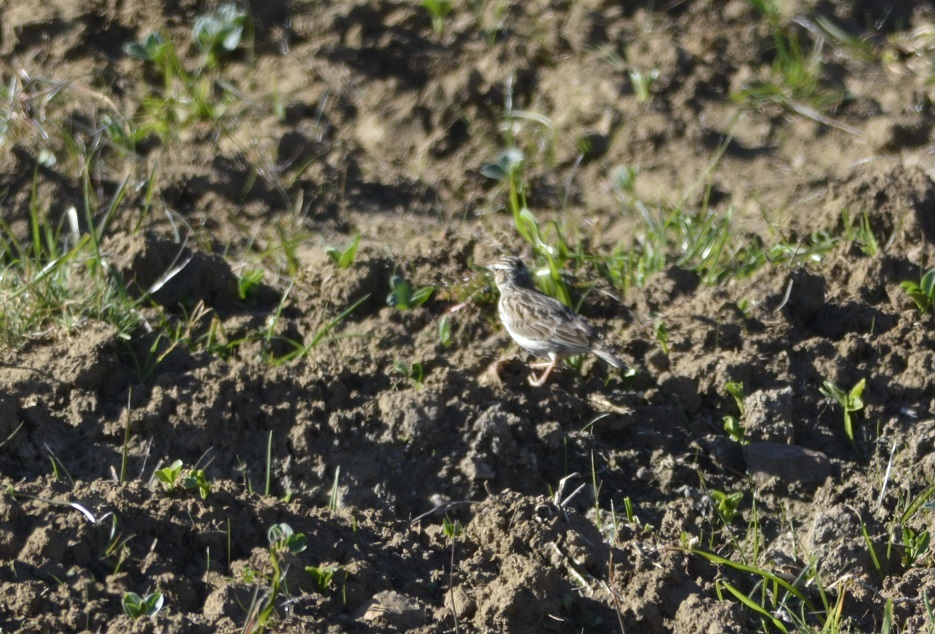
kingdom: Animalia
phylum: Chordata
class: Aves
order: Passeriformes
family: Alaudidae
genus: Lullula
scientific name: Lullula arborea
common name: Woodlark
